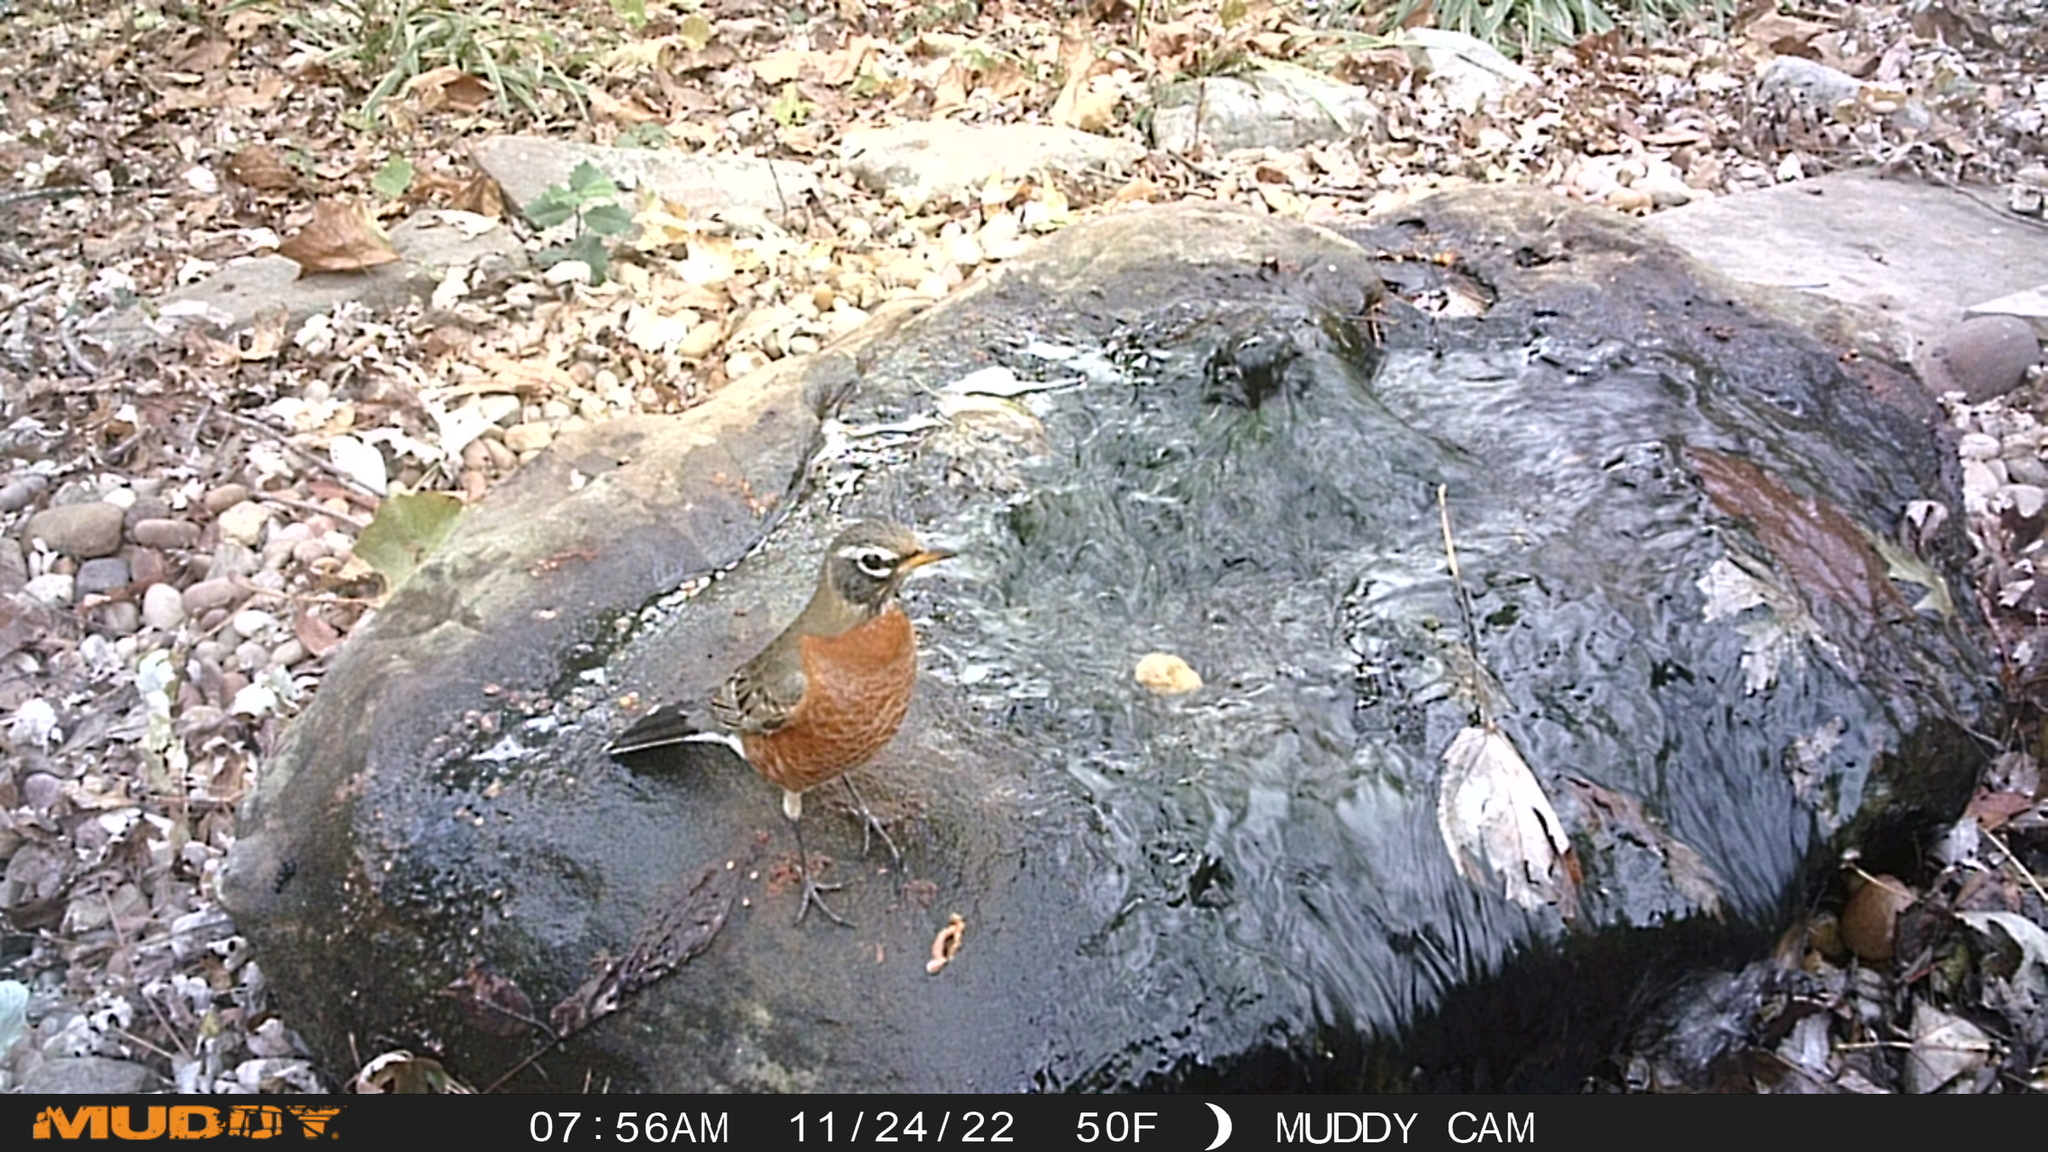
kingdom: Animalia
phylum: Chordata
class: Aves
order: Passeriformes
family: Turdidae
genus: Turdus
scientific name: Turdus migratorius
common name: American robin
